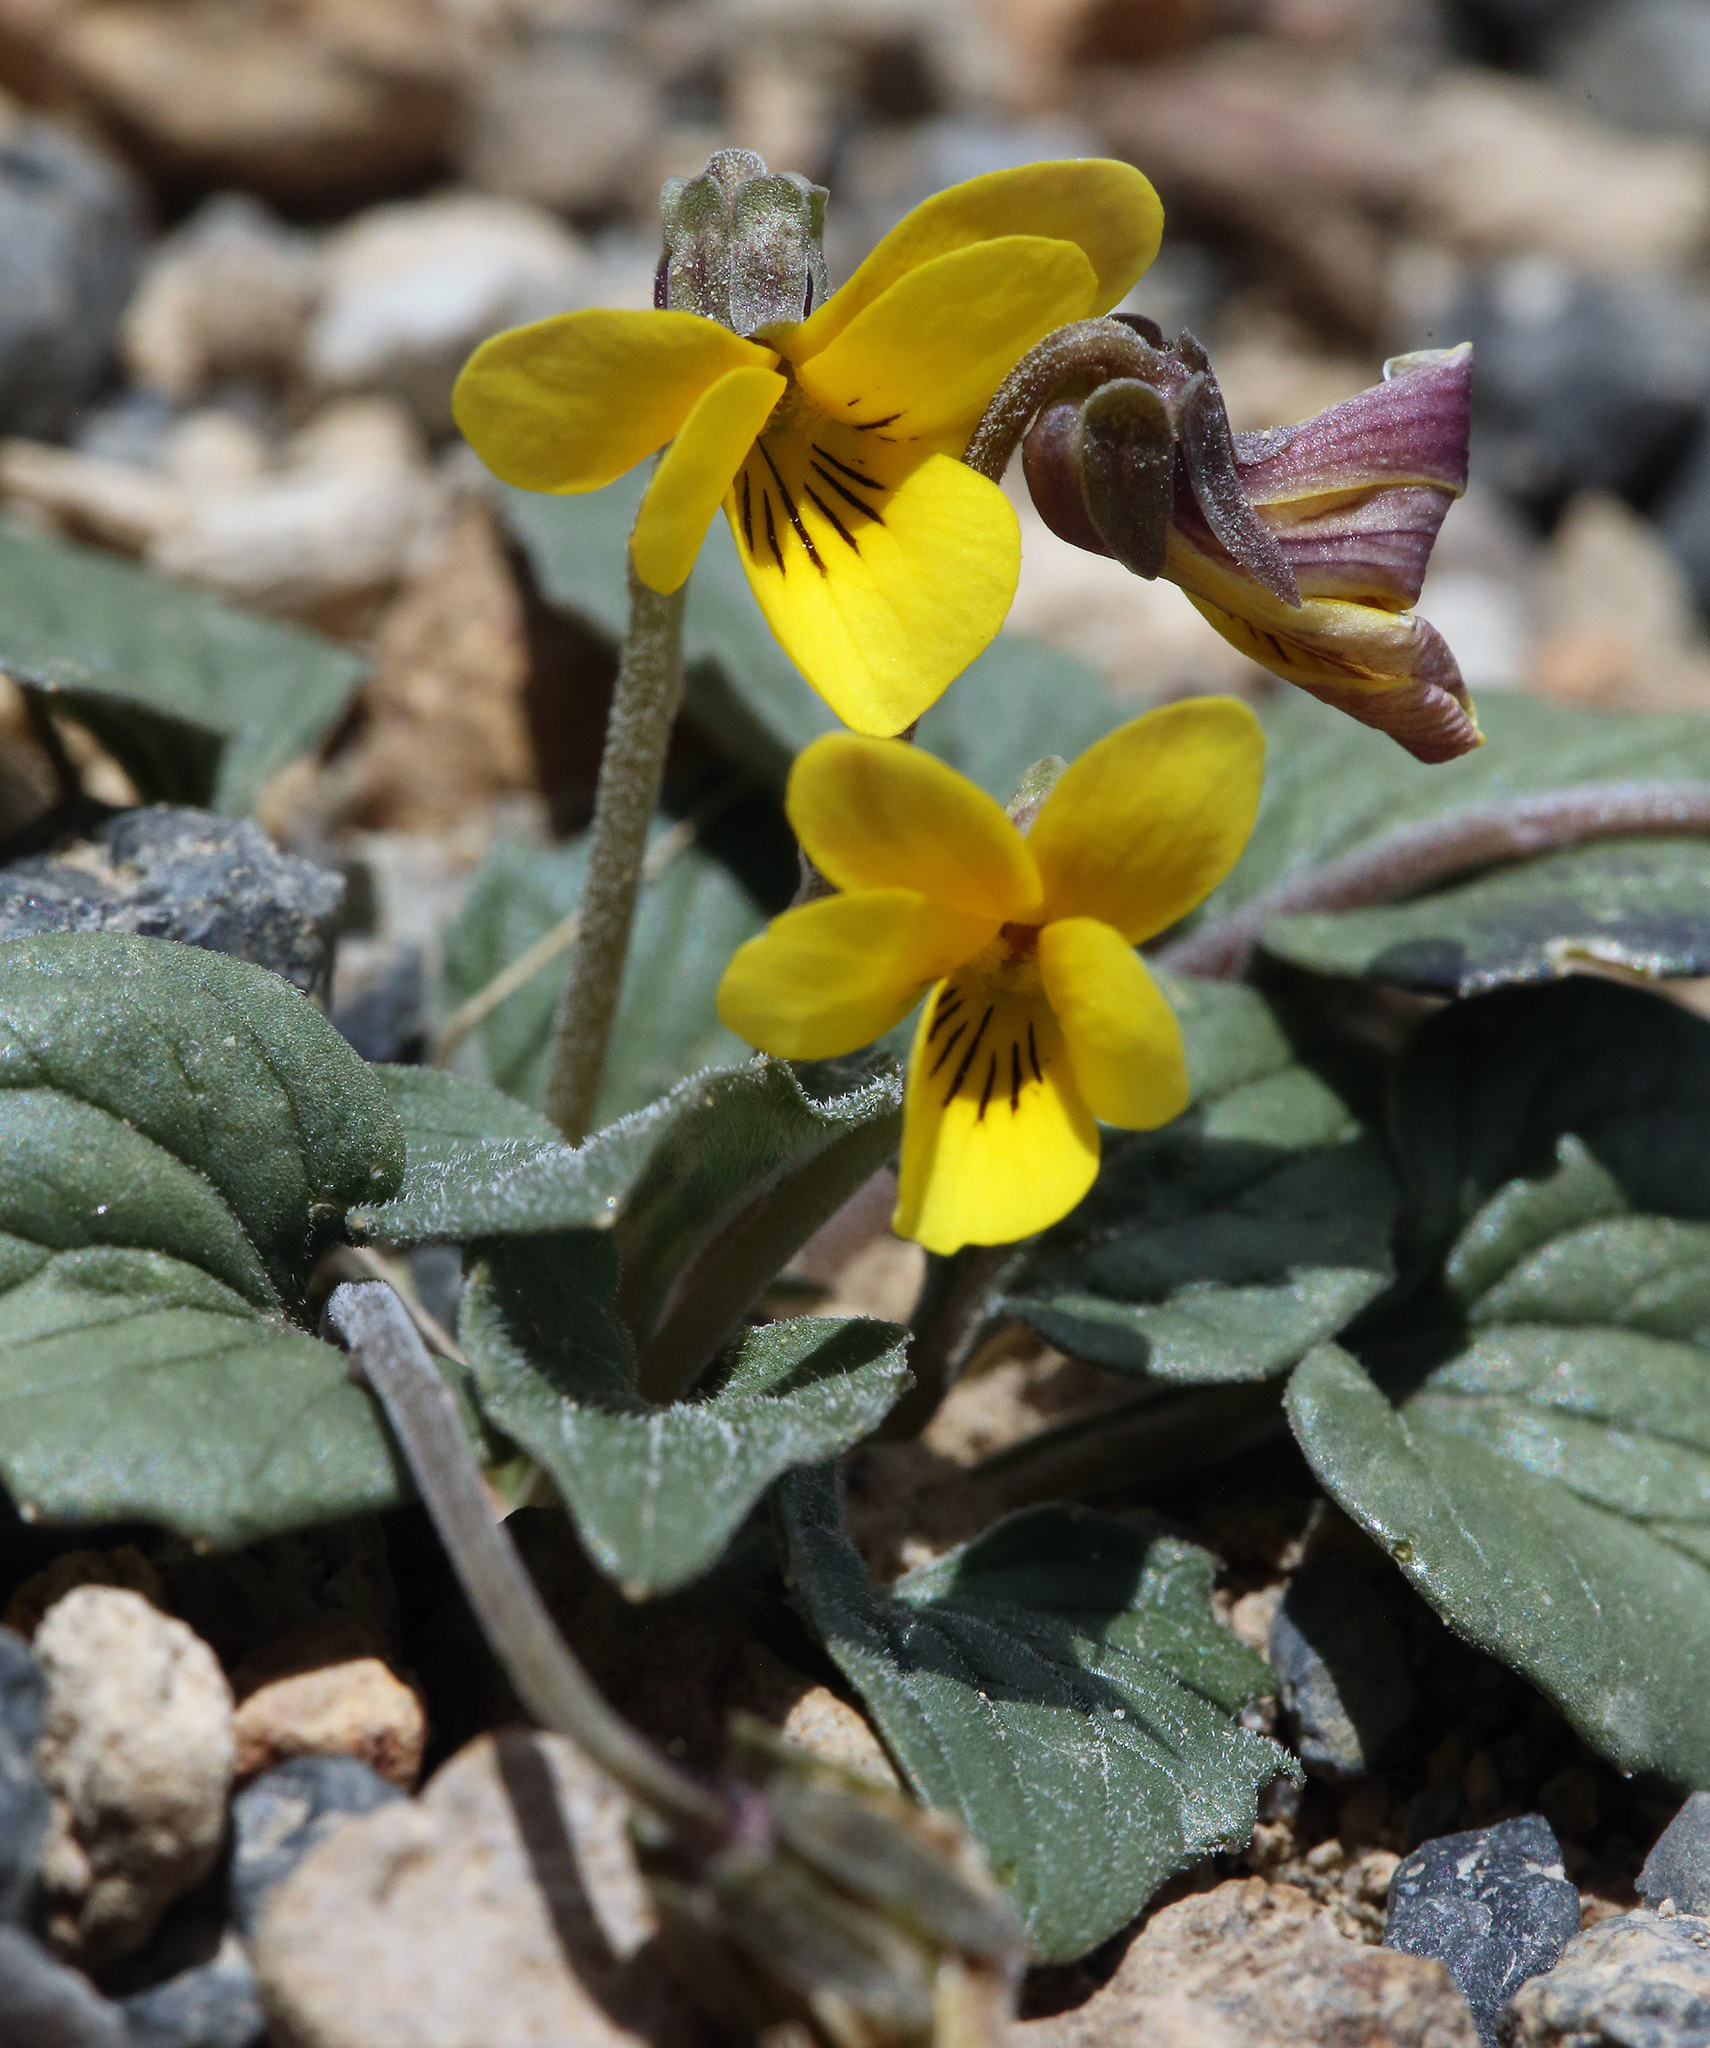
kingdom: Plantae
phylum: Tracheophyta
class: Magnoliopsida
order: Malpighiales
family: Violaceae
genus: Viola
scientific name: Viola purpurea
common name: Pine violet
